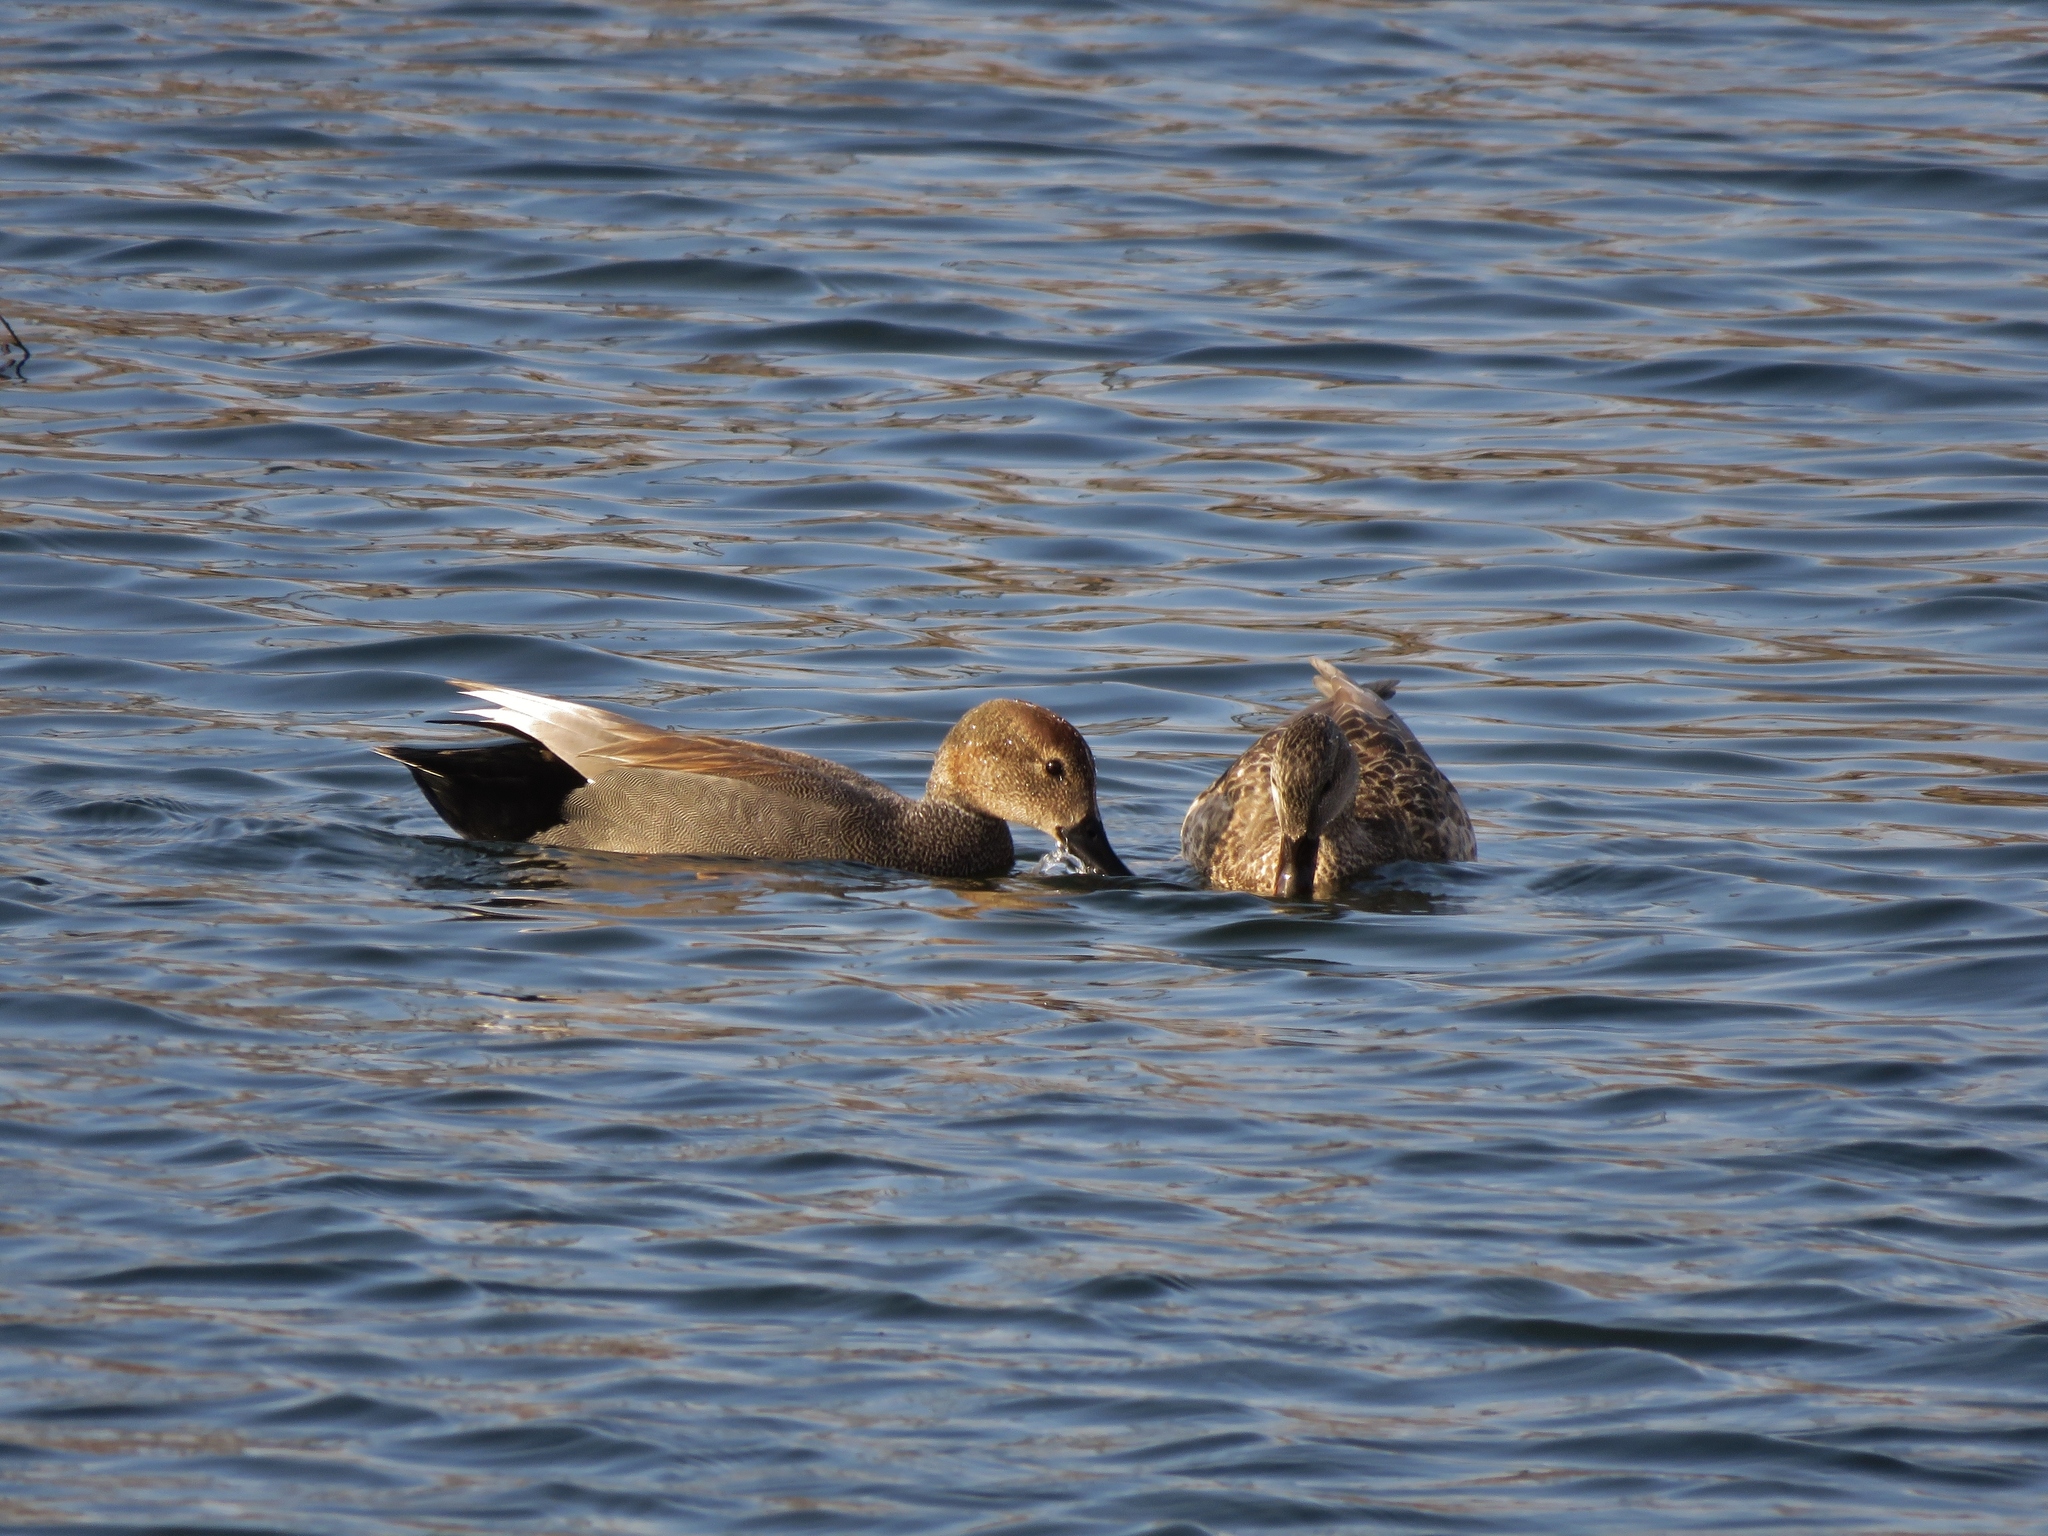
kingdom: Animalia
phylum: Chordata
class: Aves
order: Anseriformes
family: Anatidae
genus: Mareca
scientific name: Mareca strepera
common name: Gadwall
